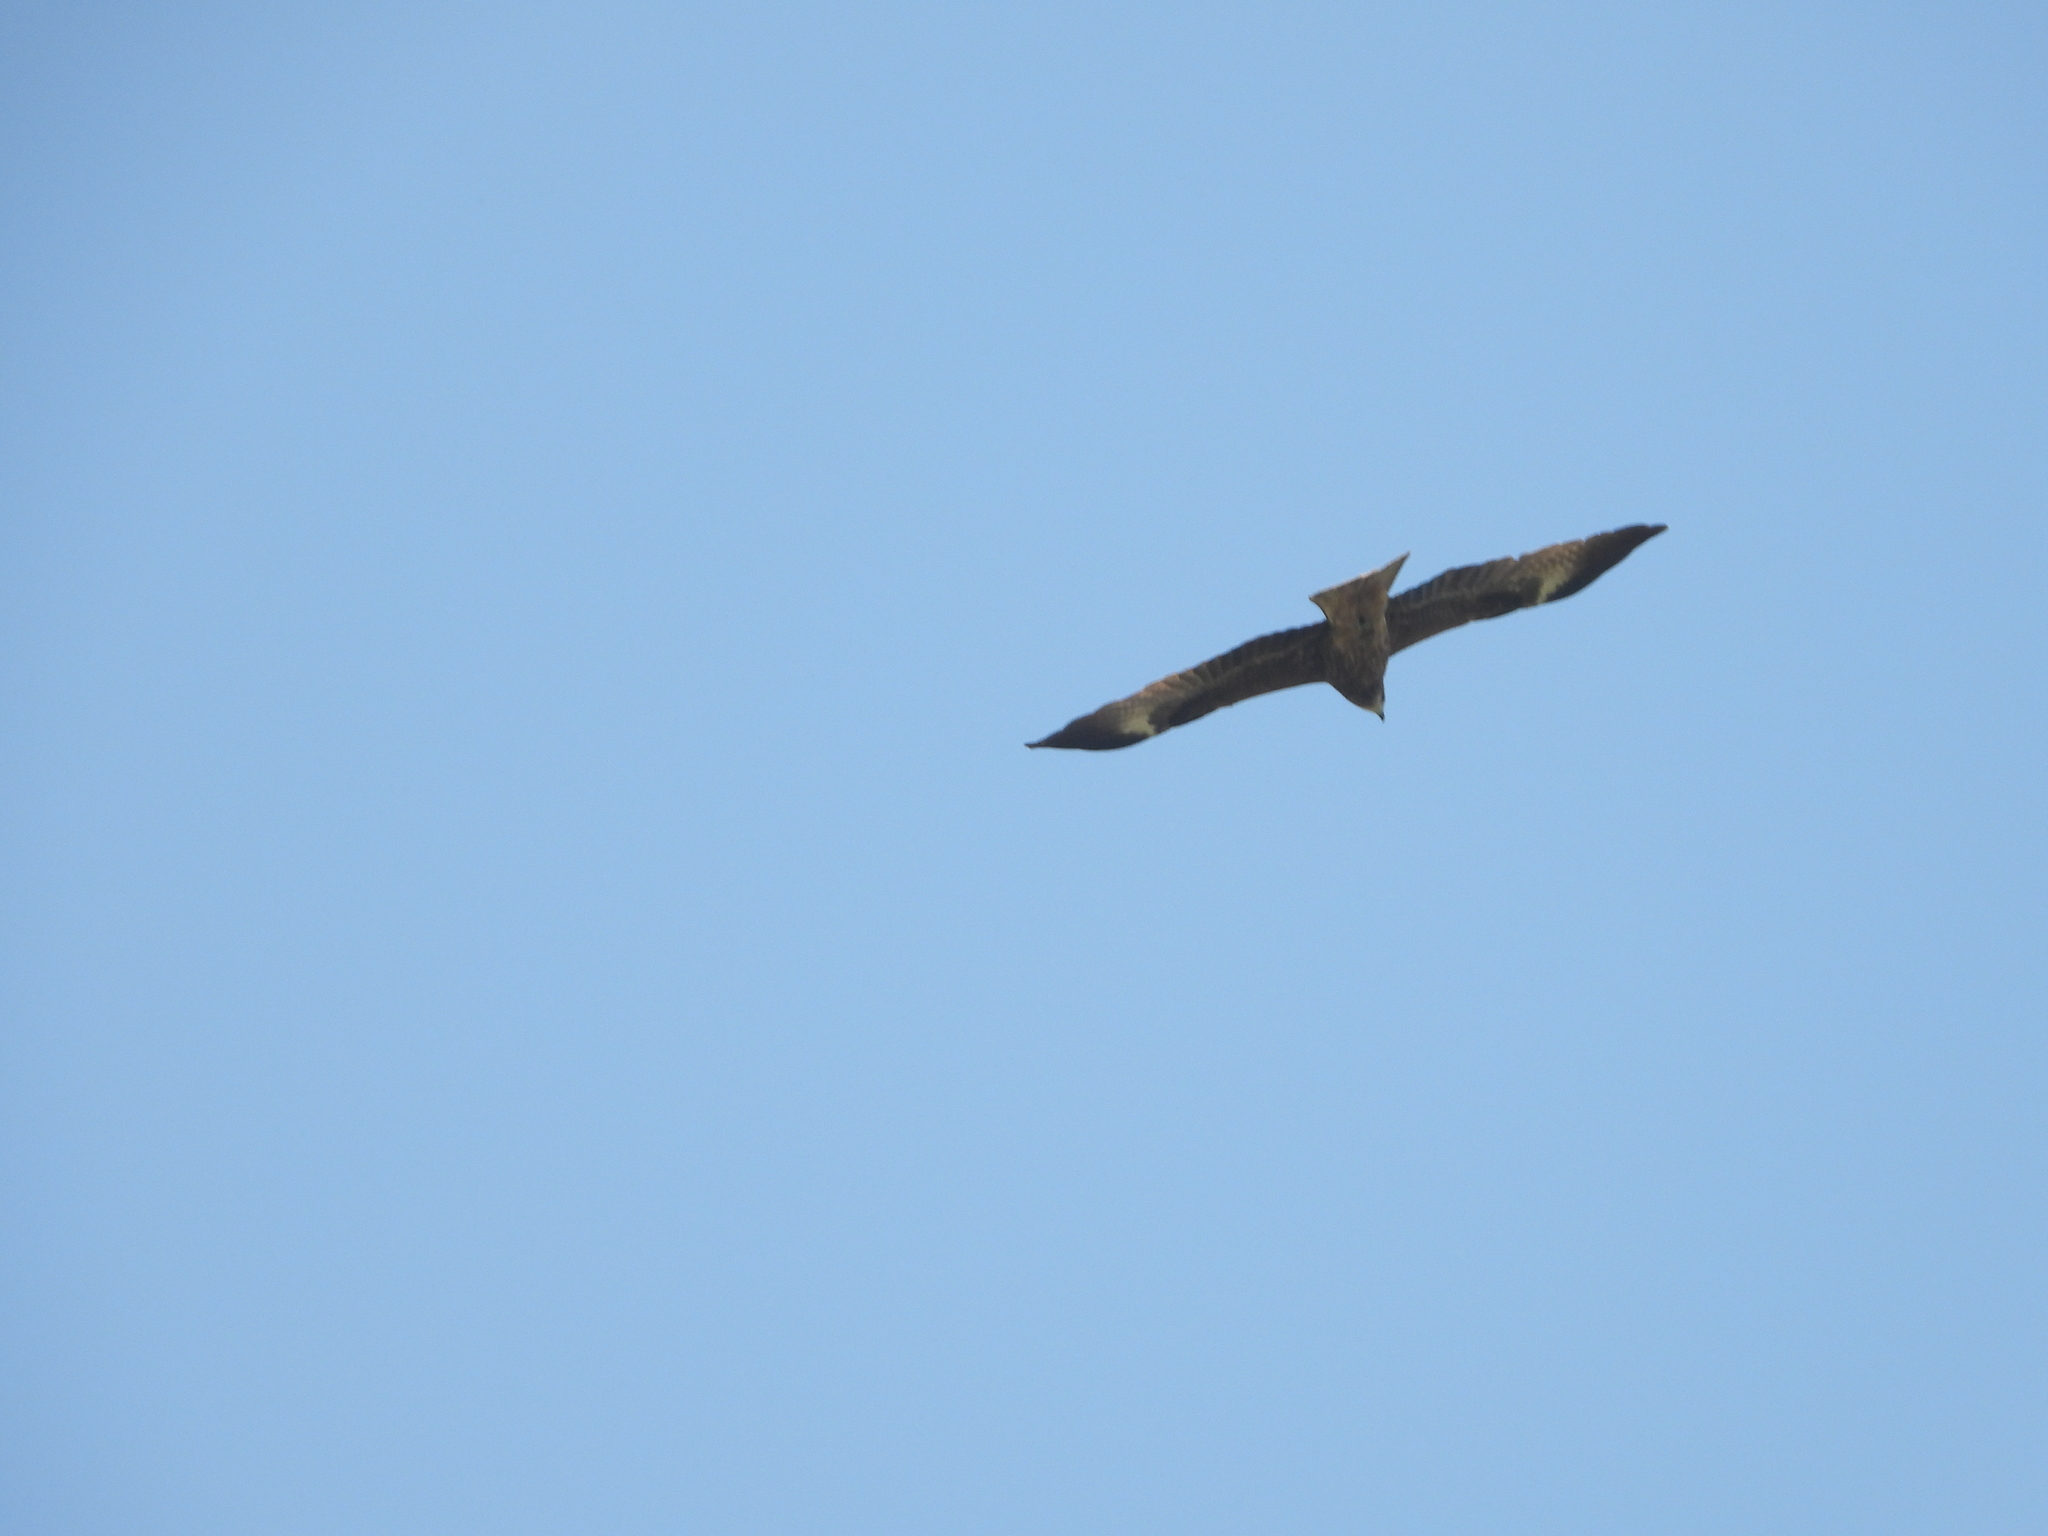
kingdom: Animalia
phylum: Chordata
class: Aves
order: Accipitriformes
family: Accipitridae
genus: Milvus
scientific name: Milvus migrans
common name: Black kite
